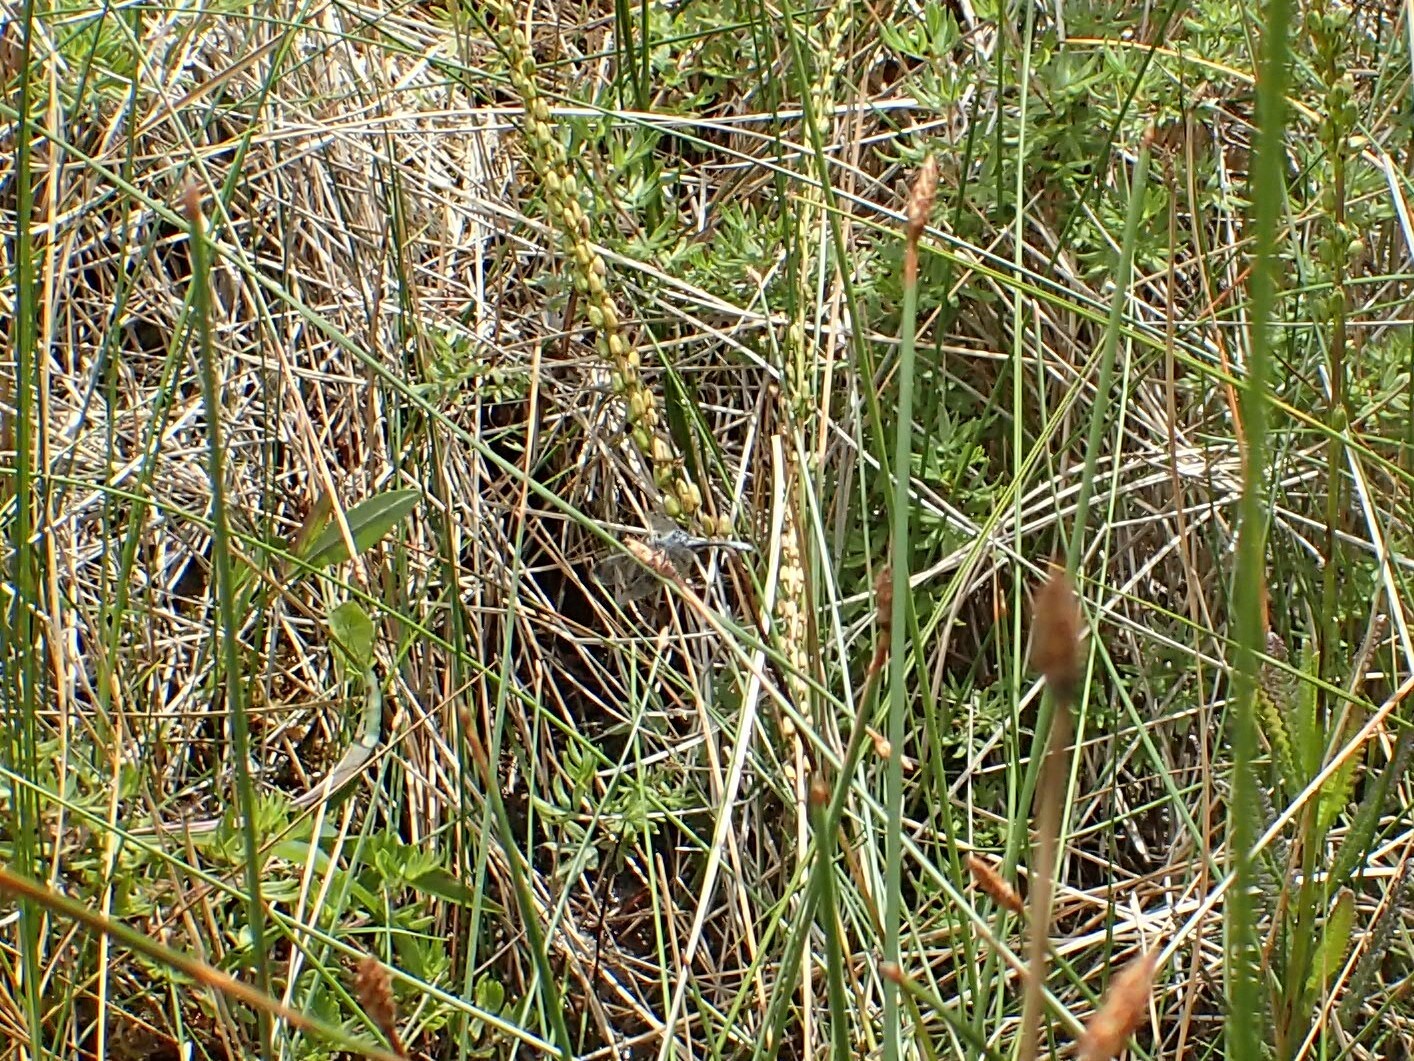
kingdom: Animalia
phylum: Arthropoda
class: Insecta
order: Odonata
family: Libellulidae
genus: Nannothemis
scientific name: Nannothemis bella
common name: Elfin skimmer
